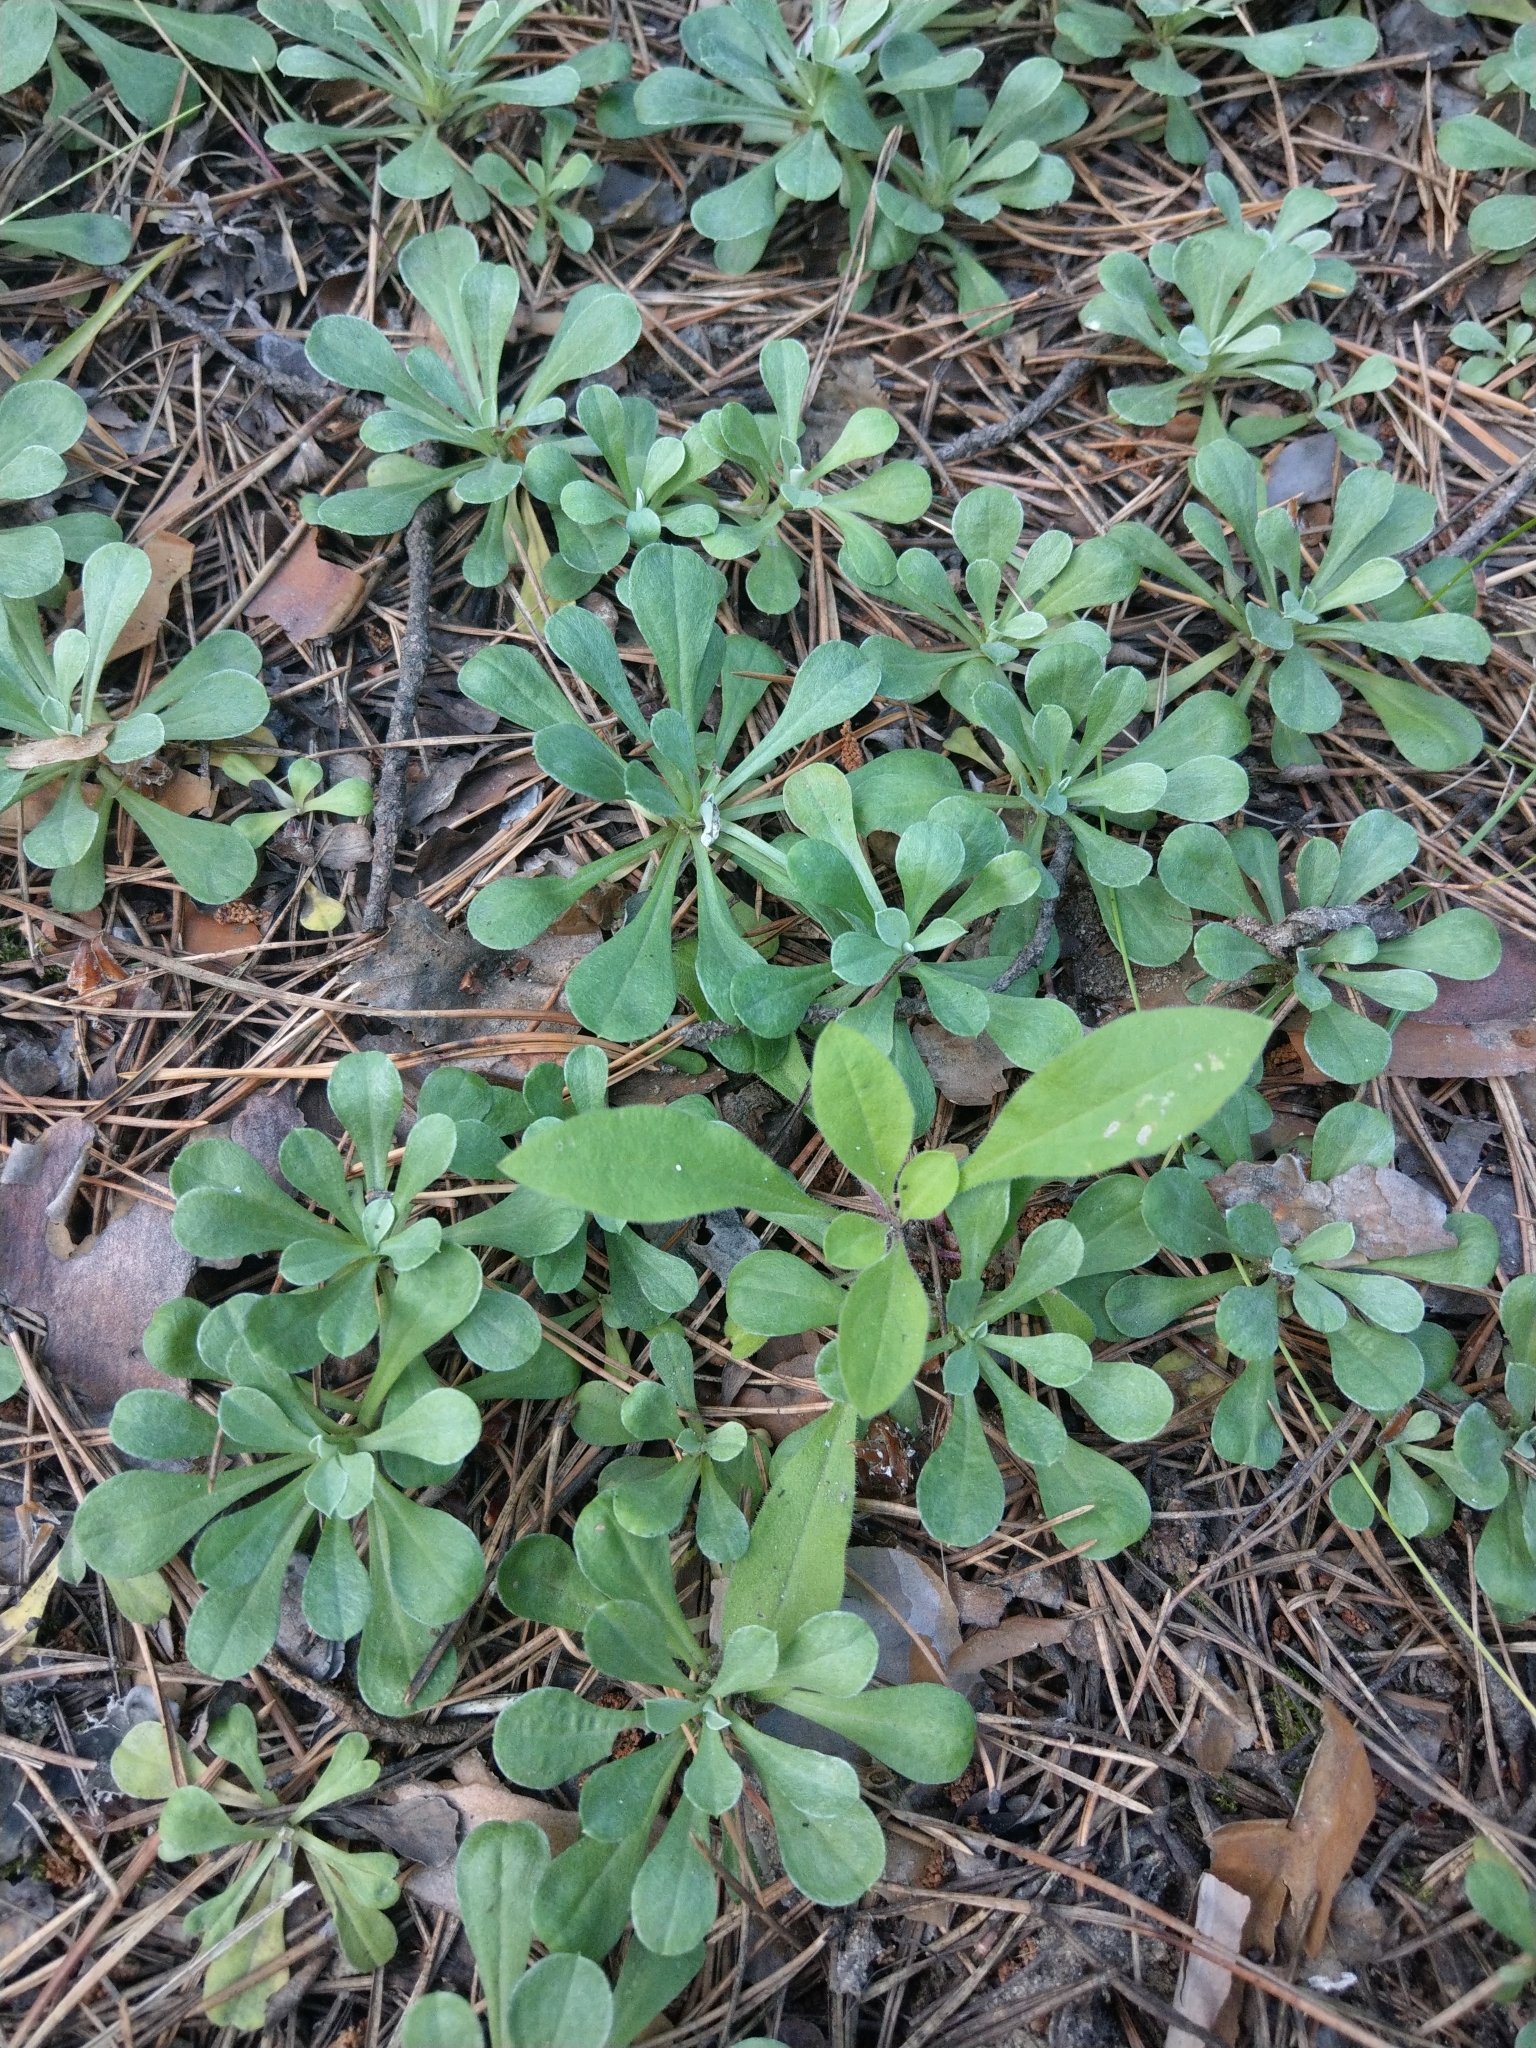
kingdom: Plantae
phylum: Tracheophyta
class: Magnoliopsida
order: Asterales
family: Asteraceae
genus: Antennaria
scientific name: Antennaria dioica
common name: Mountain everlasting
